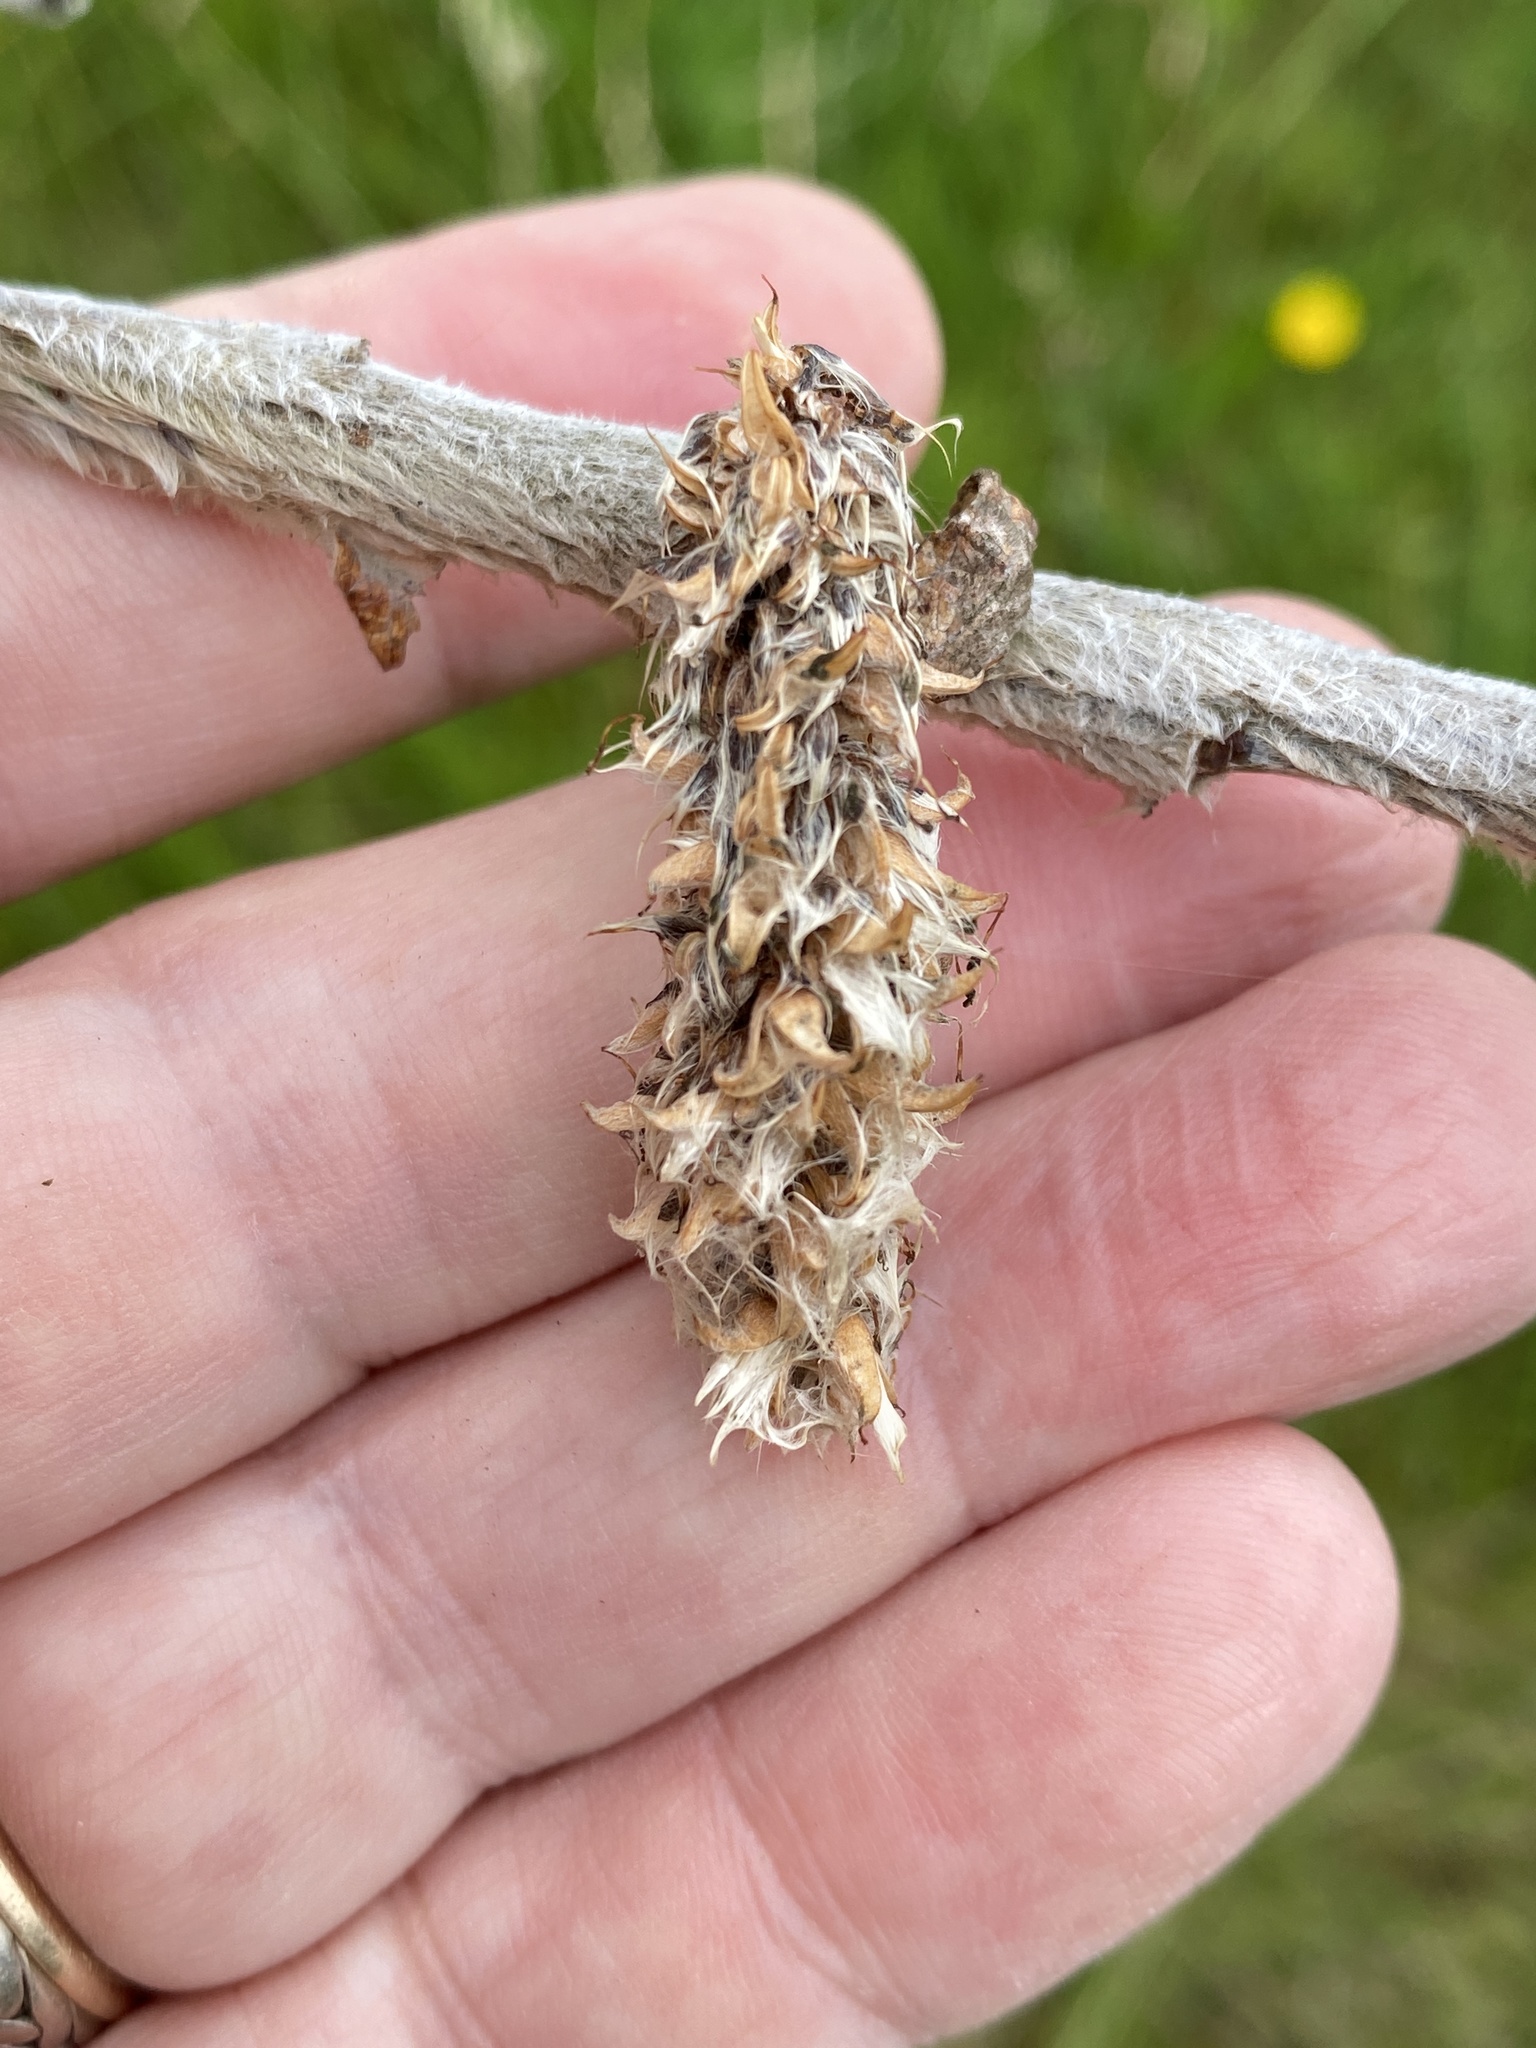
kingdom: Plantae
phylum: Tracheophyta
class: Magnoliopsida
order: Malpighiales
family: Salicaceae
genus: Salix
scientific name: Salix alaxensis
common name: Feltleaf willow
